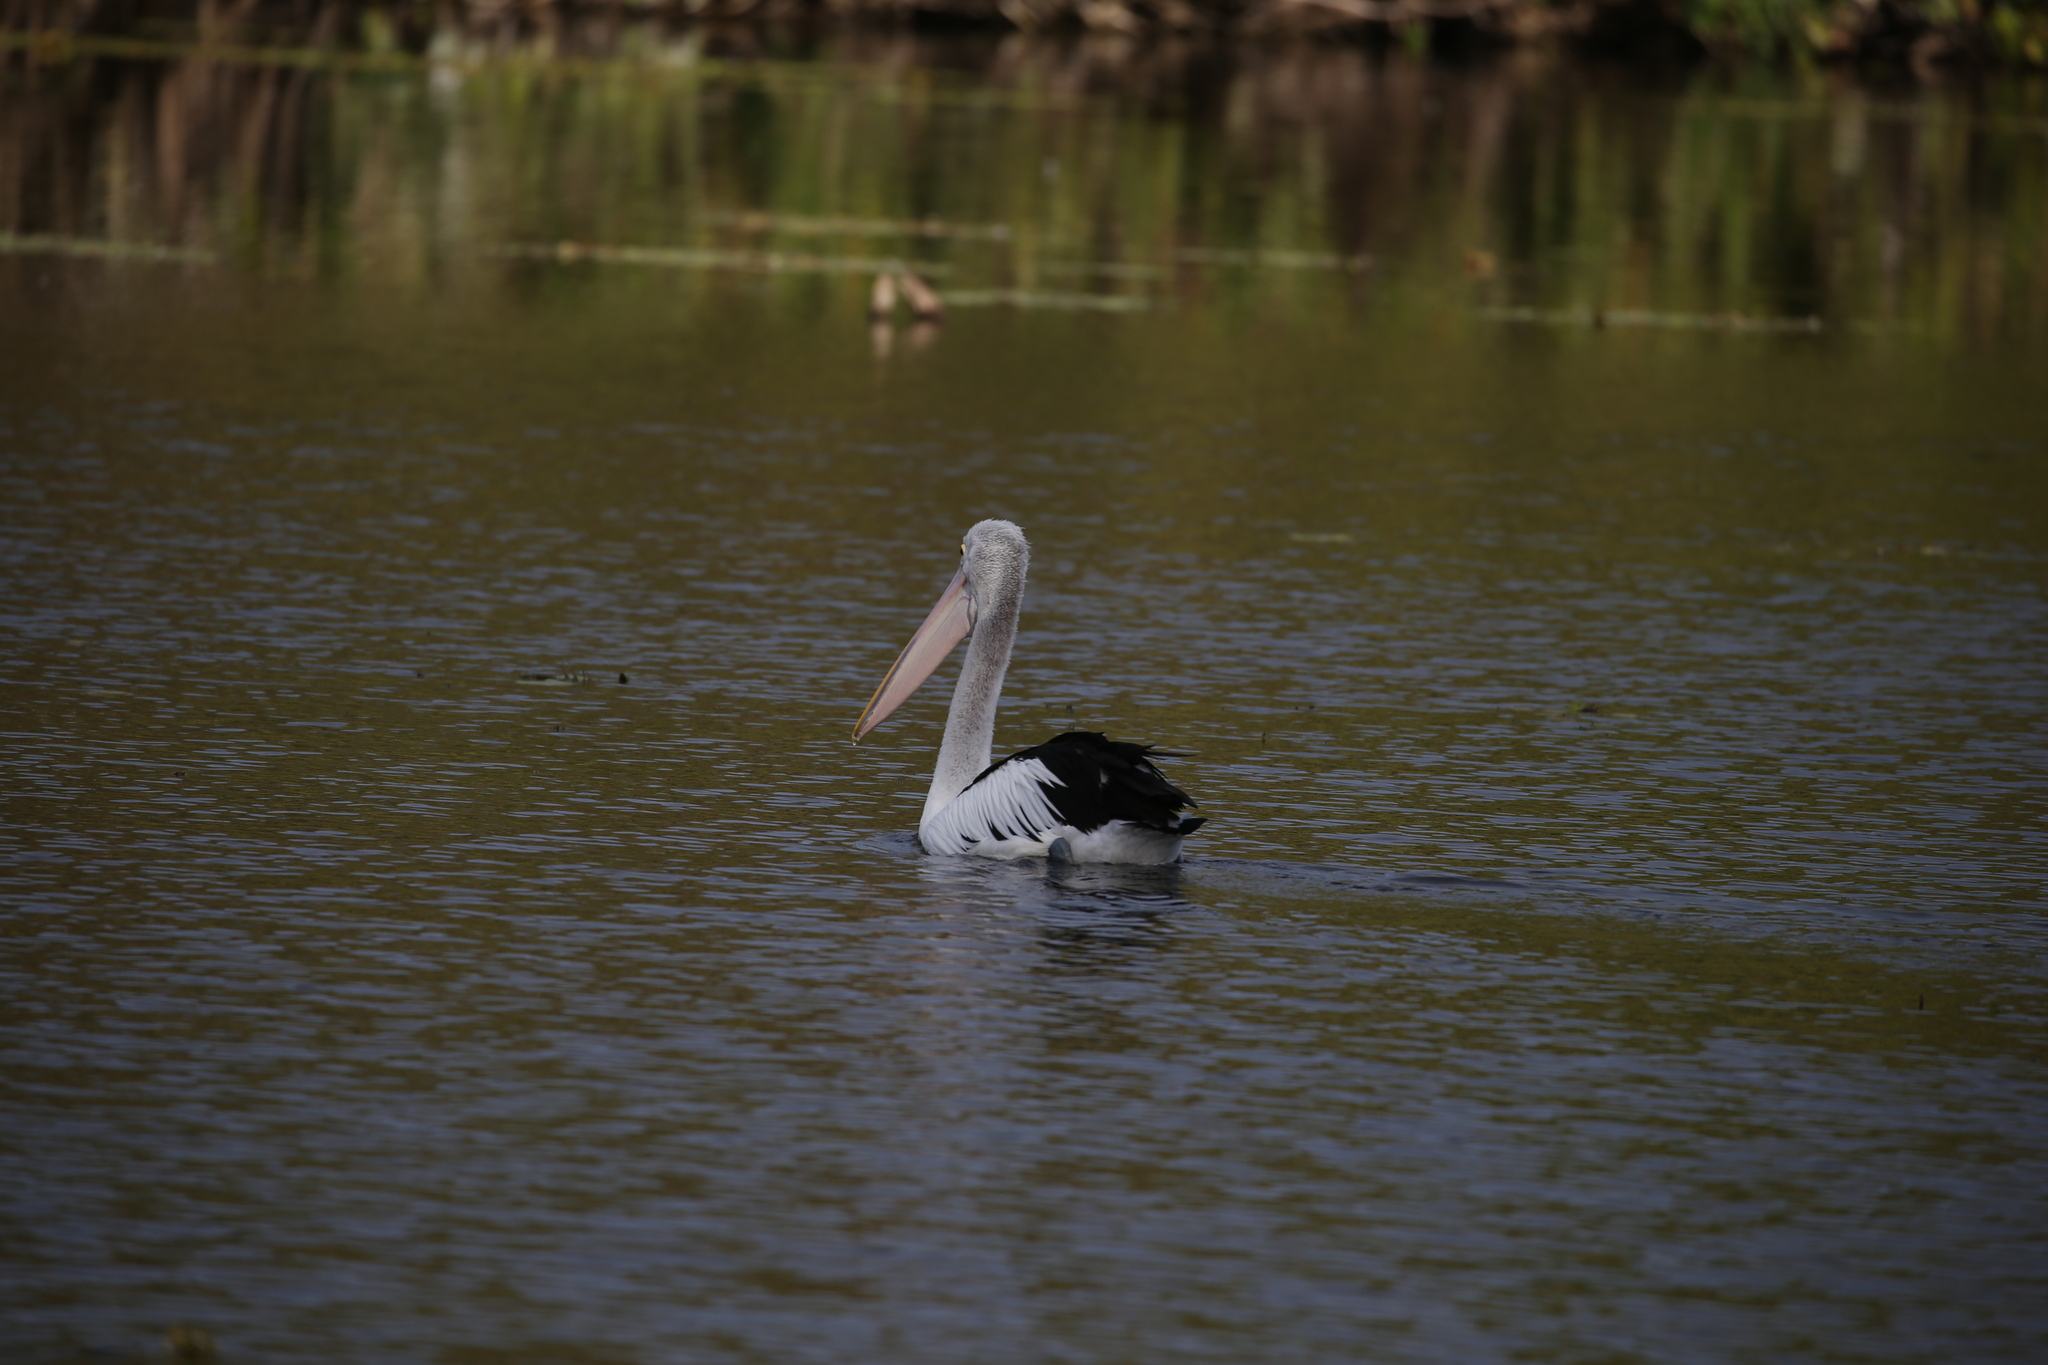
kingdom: Animalia
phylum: Chordata
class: Aves
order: Pelecaniformes
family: Pelecanidae
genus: Pelecanus
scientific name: Pelecanus conspicillatus
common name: Australian pelican
